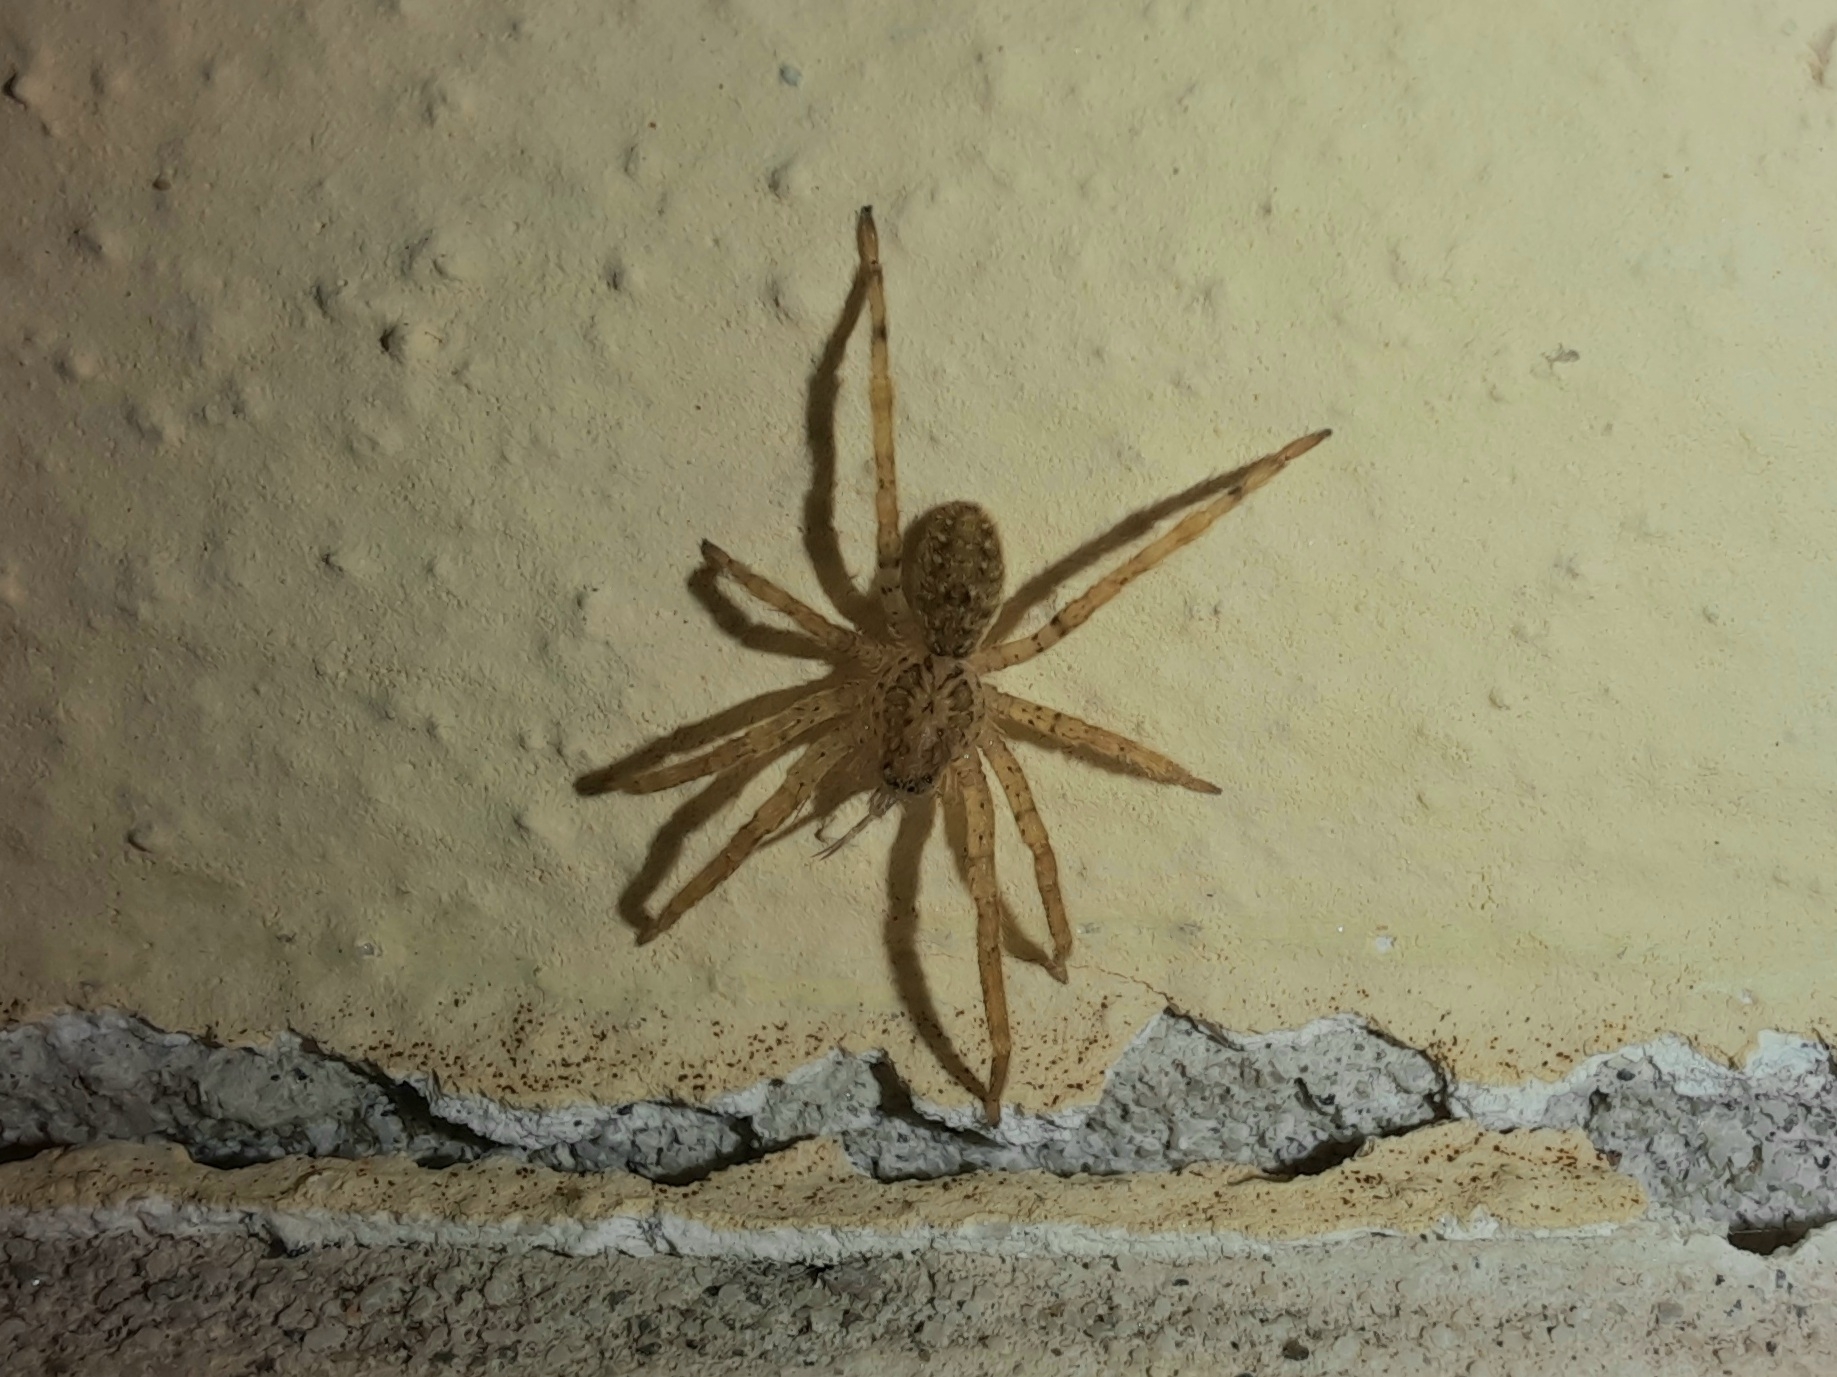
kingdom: Animalia
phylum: Arthropoda
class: Arachnida
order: Araneae
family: Zoropsidae
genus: Zoropsis
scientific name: Zoropsis spinimana
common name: Zoropsid spider
